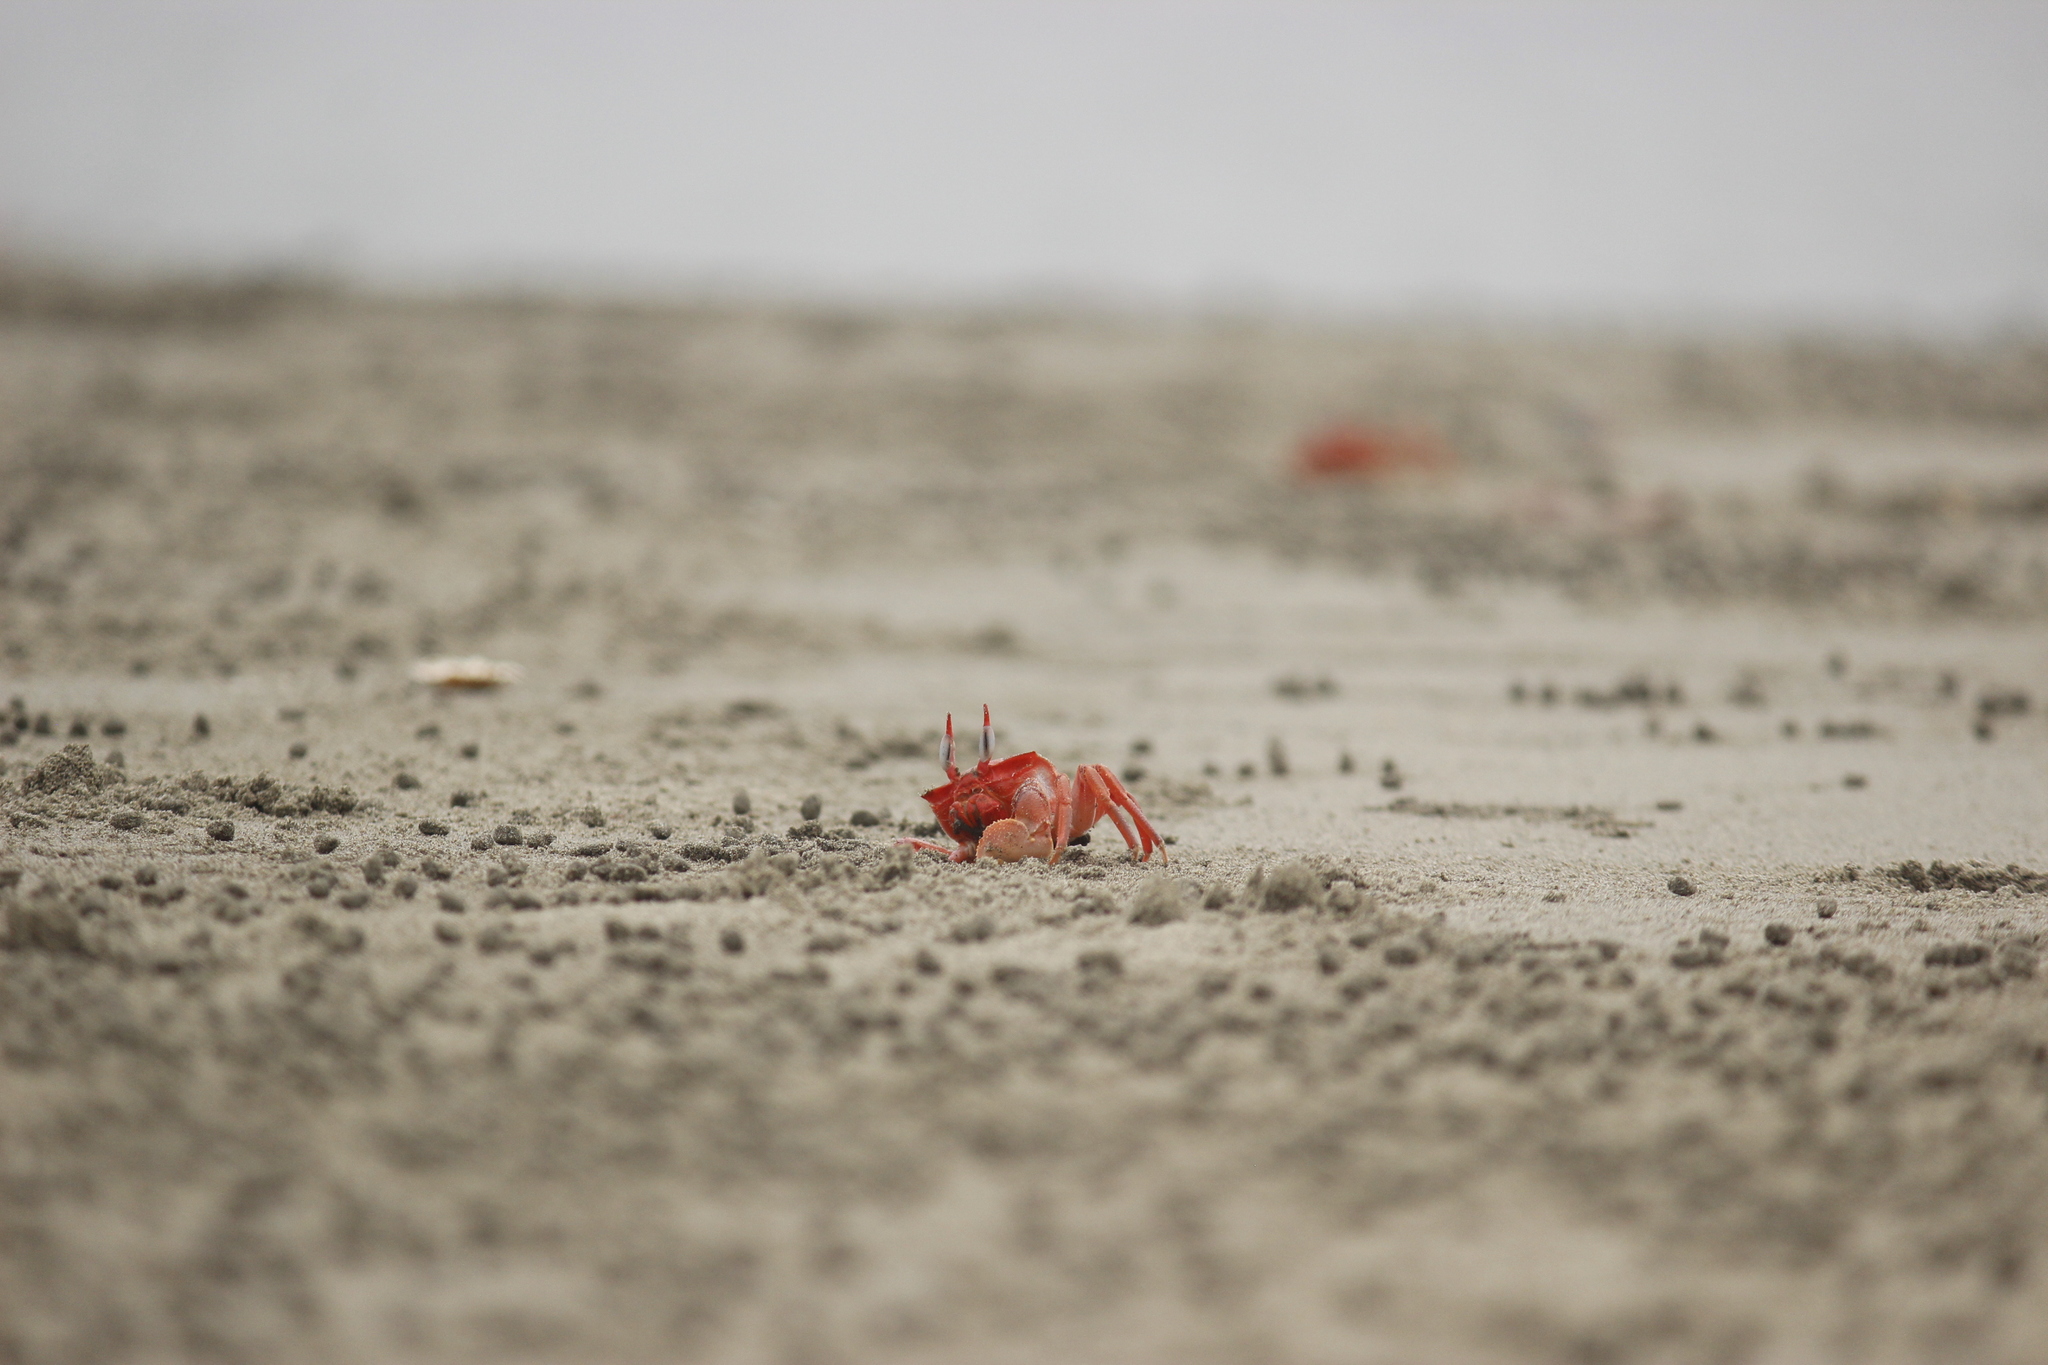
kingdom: Animalia
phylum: Arthropoda
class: Malacostraca
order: Decapoda
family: Ocypodidae
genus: Ocypode
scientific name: Ocypode gaudichaudii
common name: Pacific ghost crab
